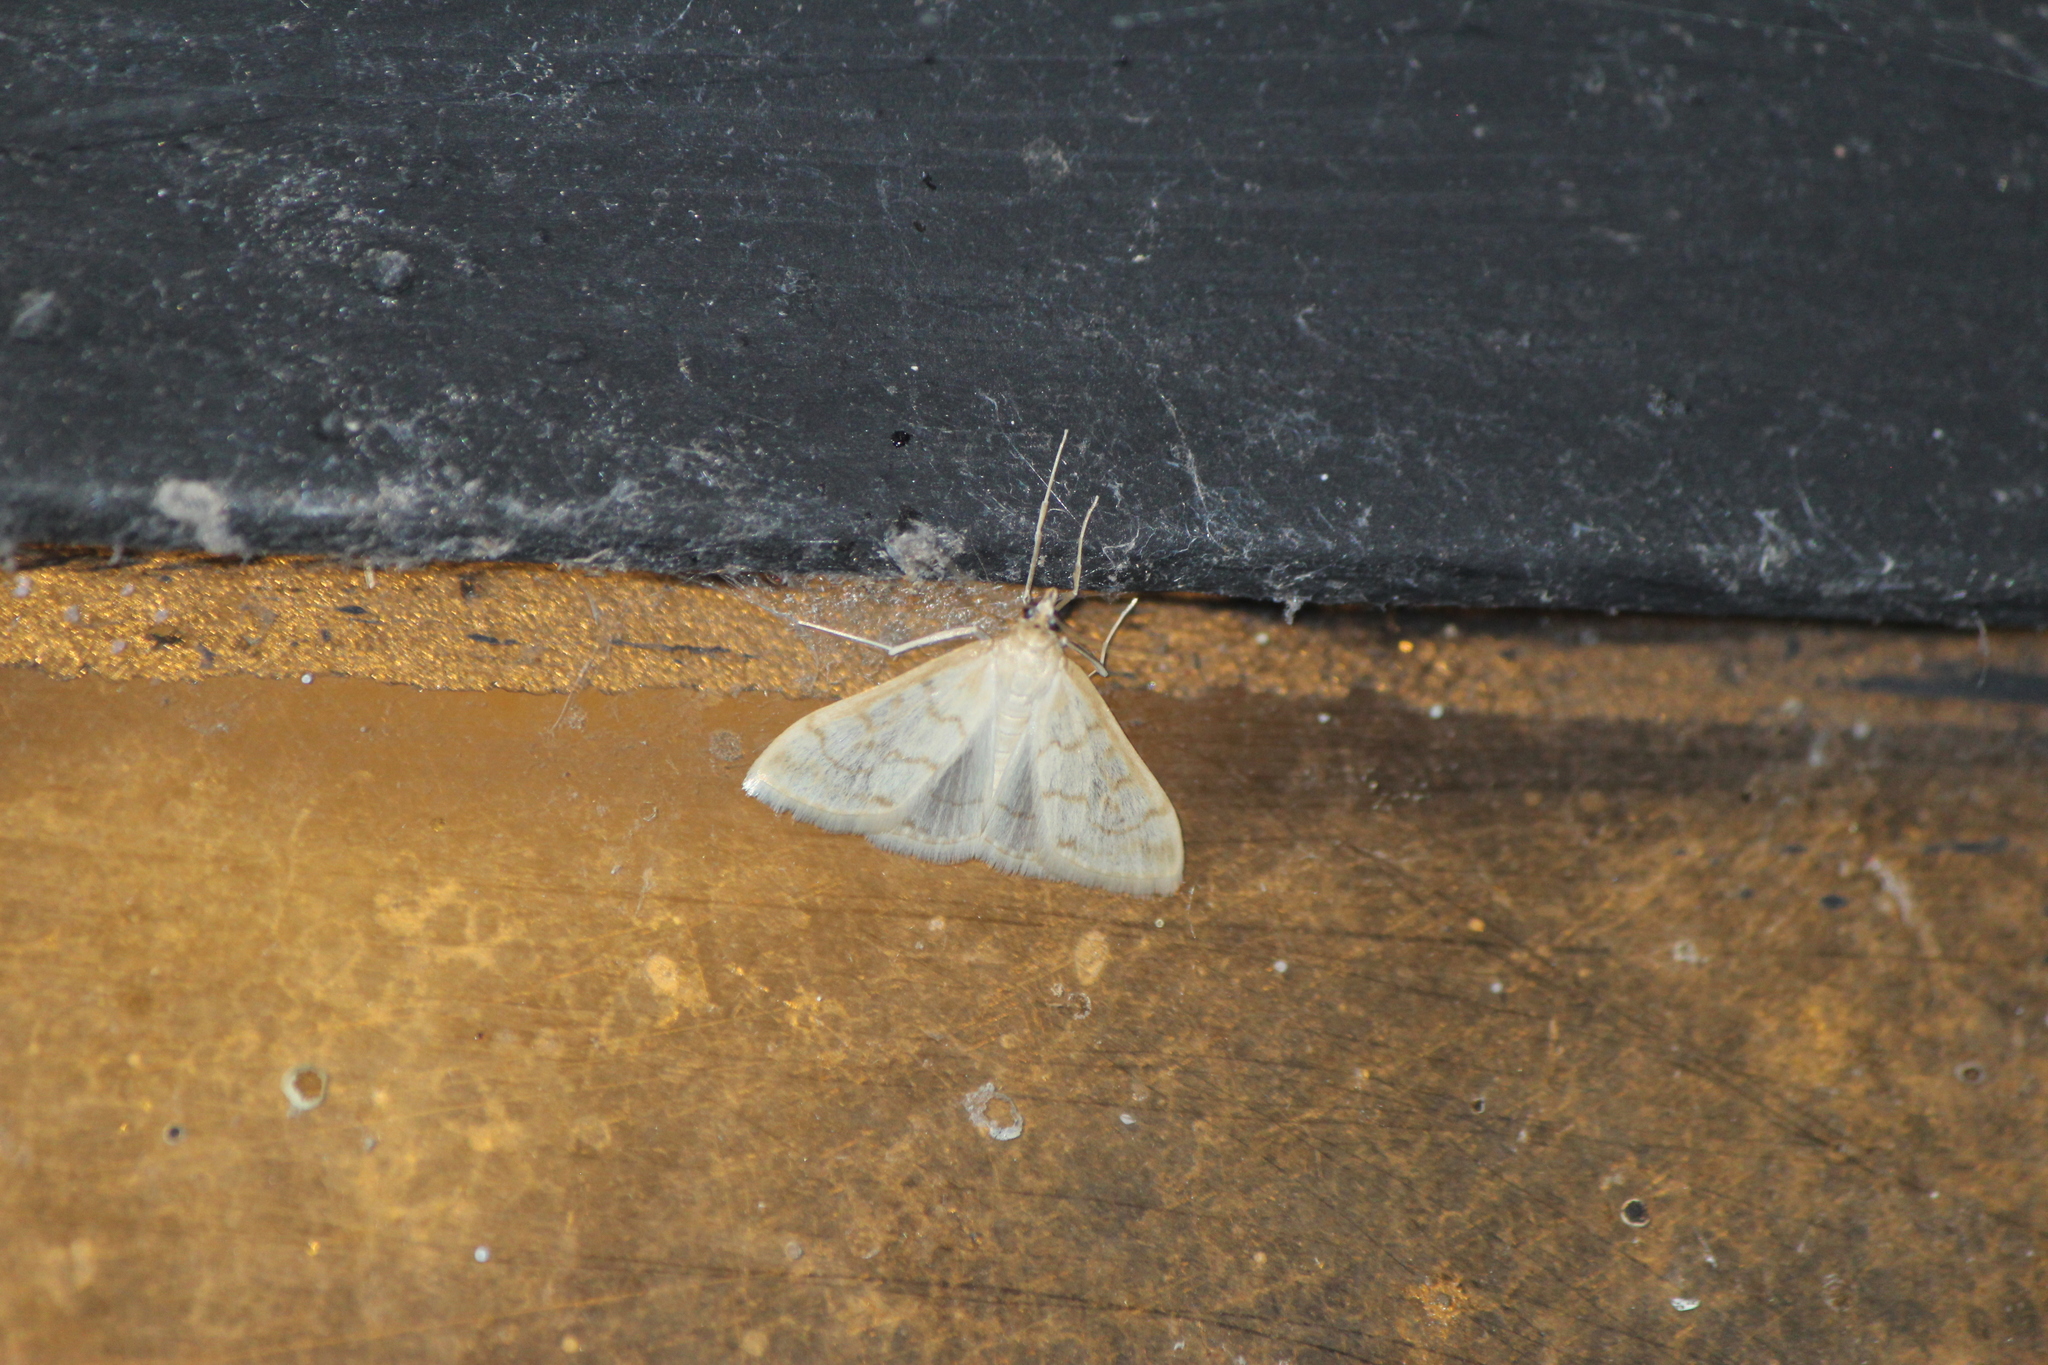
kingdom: Animalia
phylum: Arthropoda
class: Insecta
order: Lepidoptera
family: Crambidae
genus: Hahncappsia
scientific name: Hahncappsia pergilvalis
